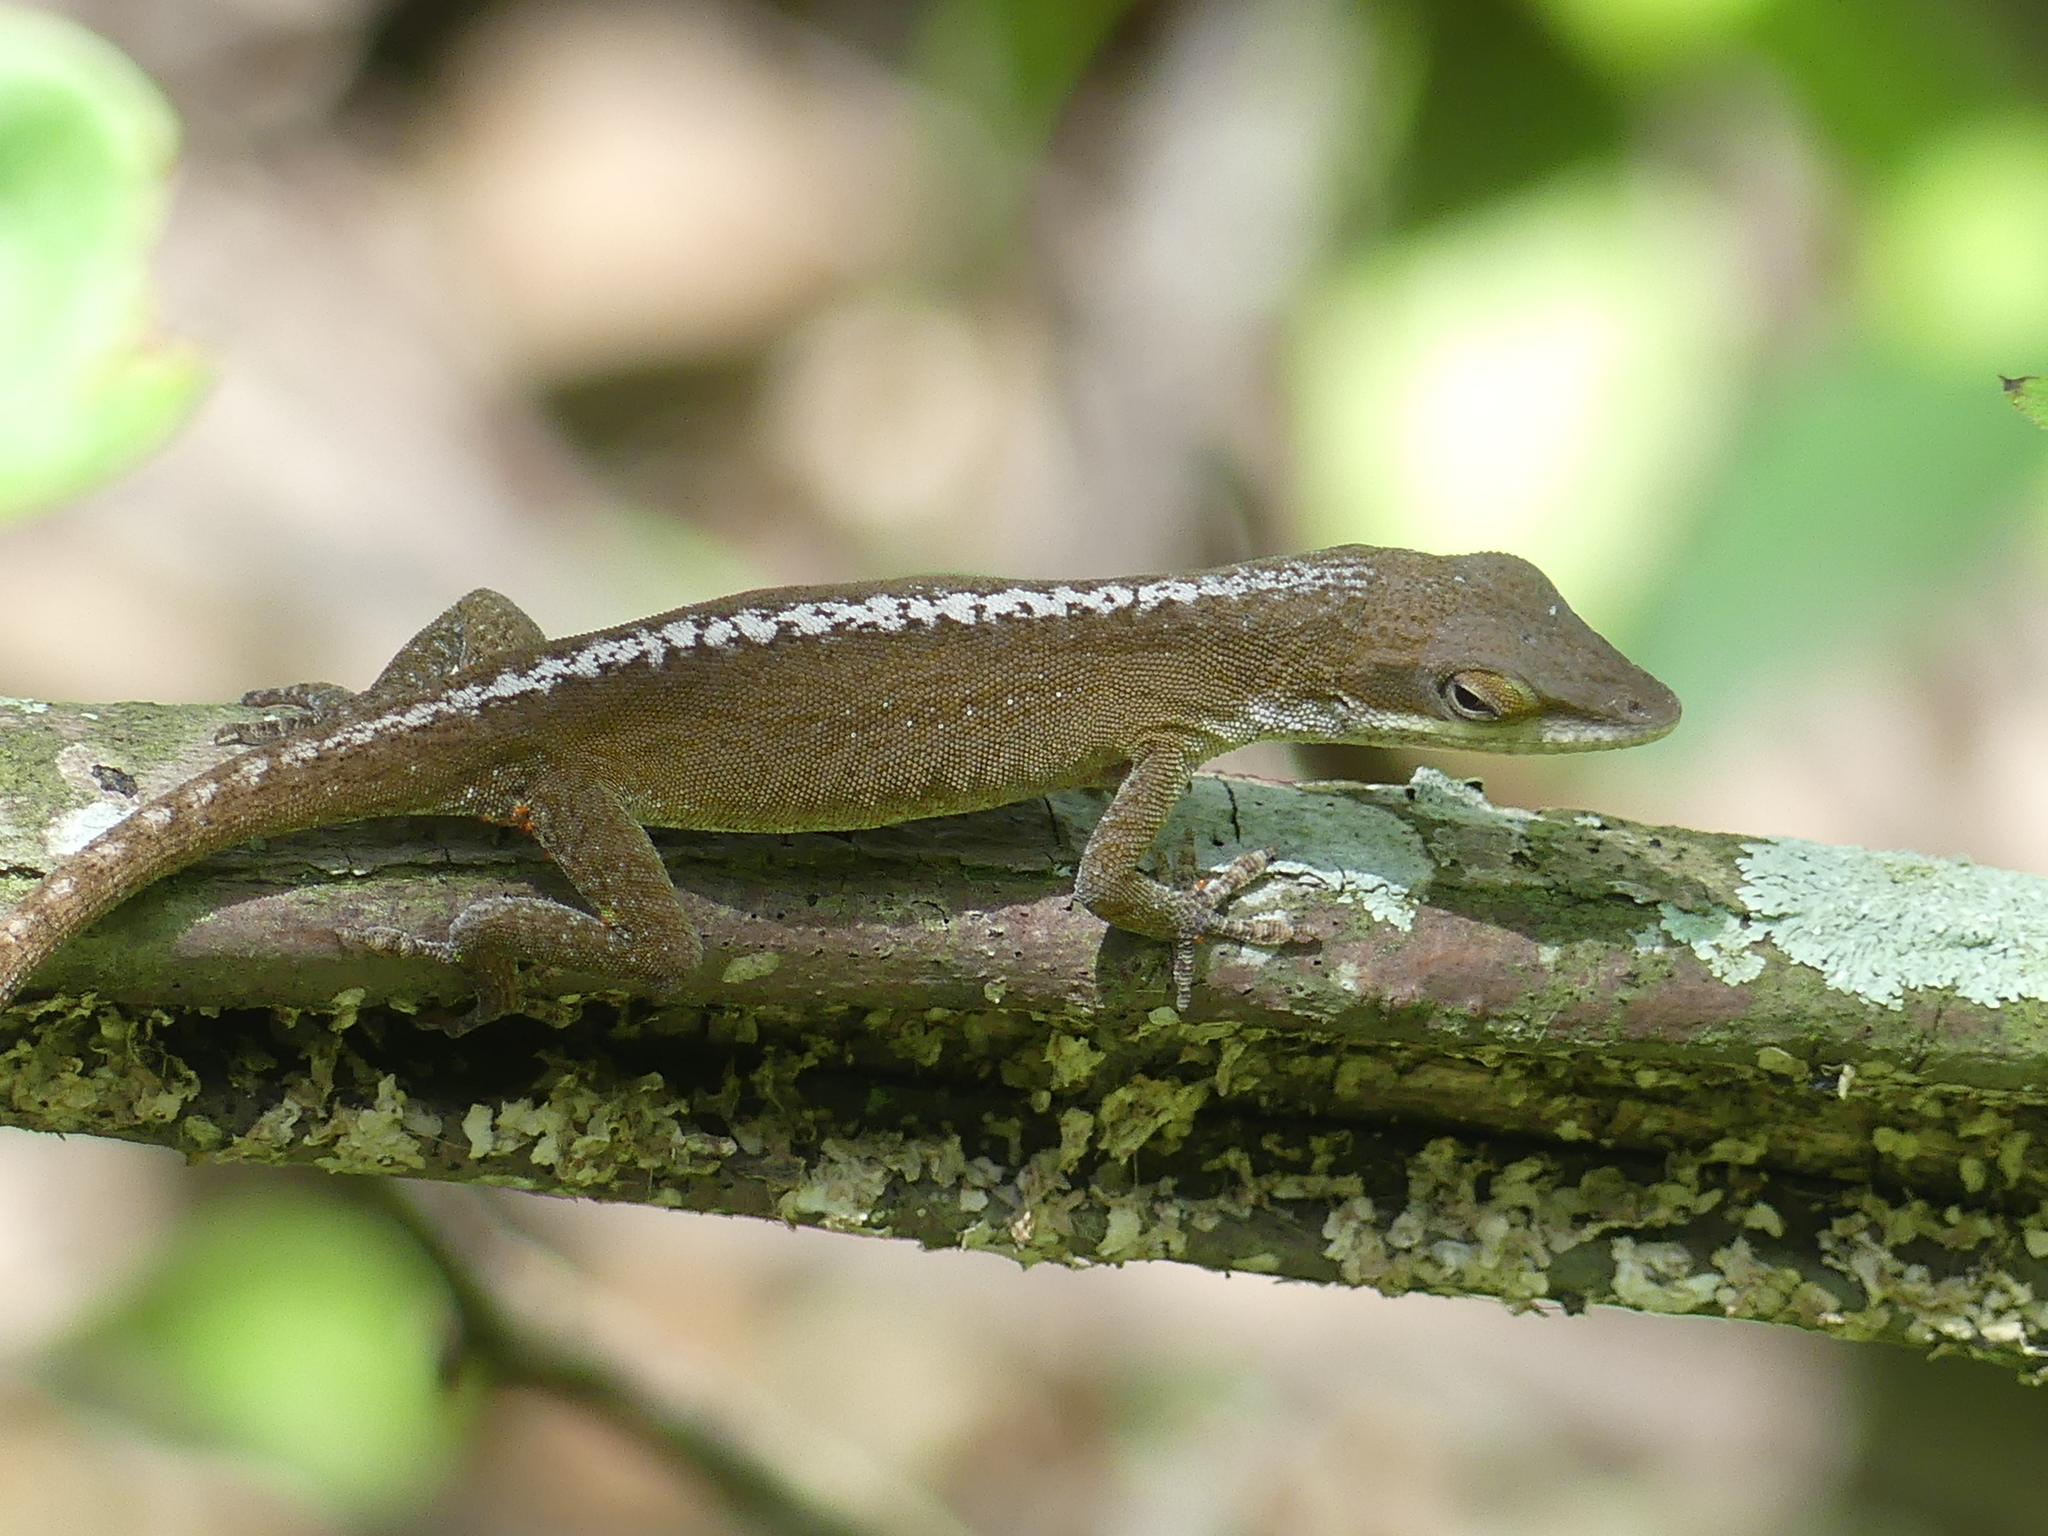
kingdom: Animalia
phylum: Chordata
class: Squamata
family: Dactyloidae
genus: Anolis
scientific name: Anolis carolinensis
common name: Green anole
